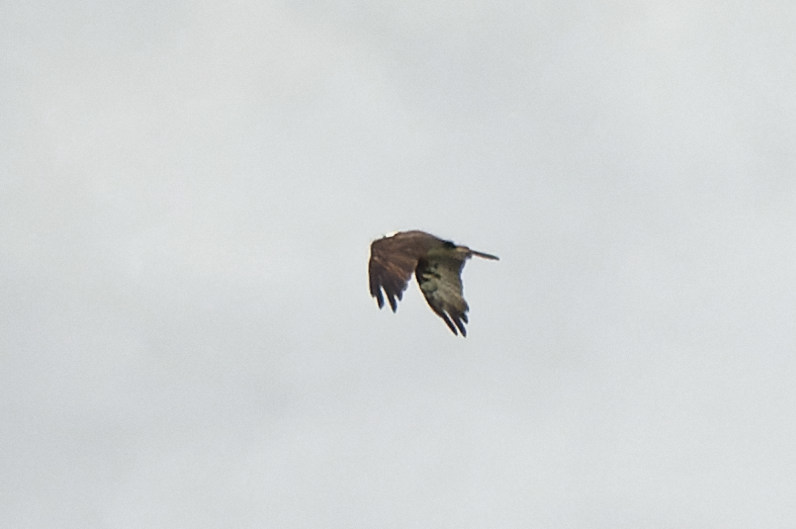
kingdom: Animalia
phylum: Chordata
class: Aves
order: Accipitriformes
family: Pandionidae
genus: Pandion
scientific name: Pandion haliaetus
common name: Osprey
